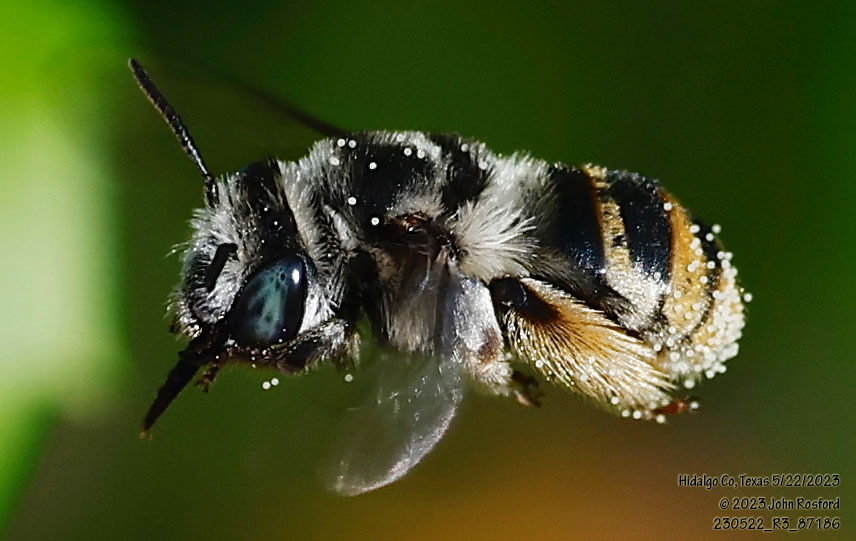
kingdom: Animalia
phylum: Arthropoda
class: Insecta
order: Hymenoptera
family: Apidae
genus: Florilegus
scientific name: Florilegus condignus
